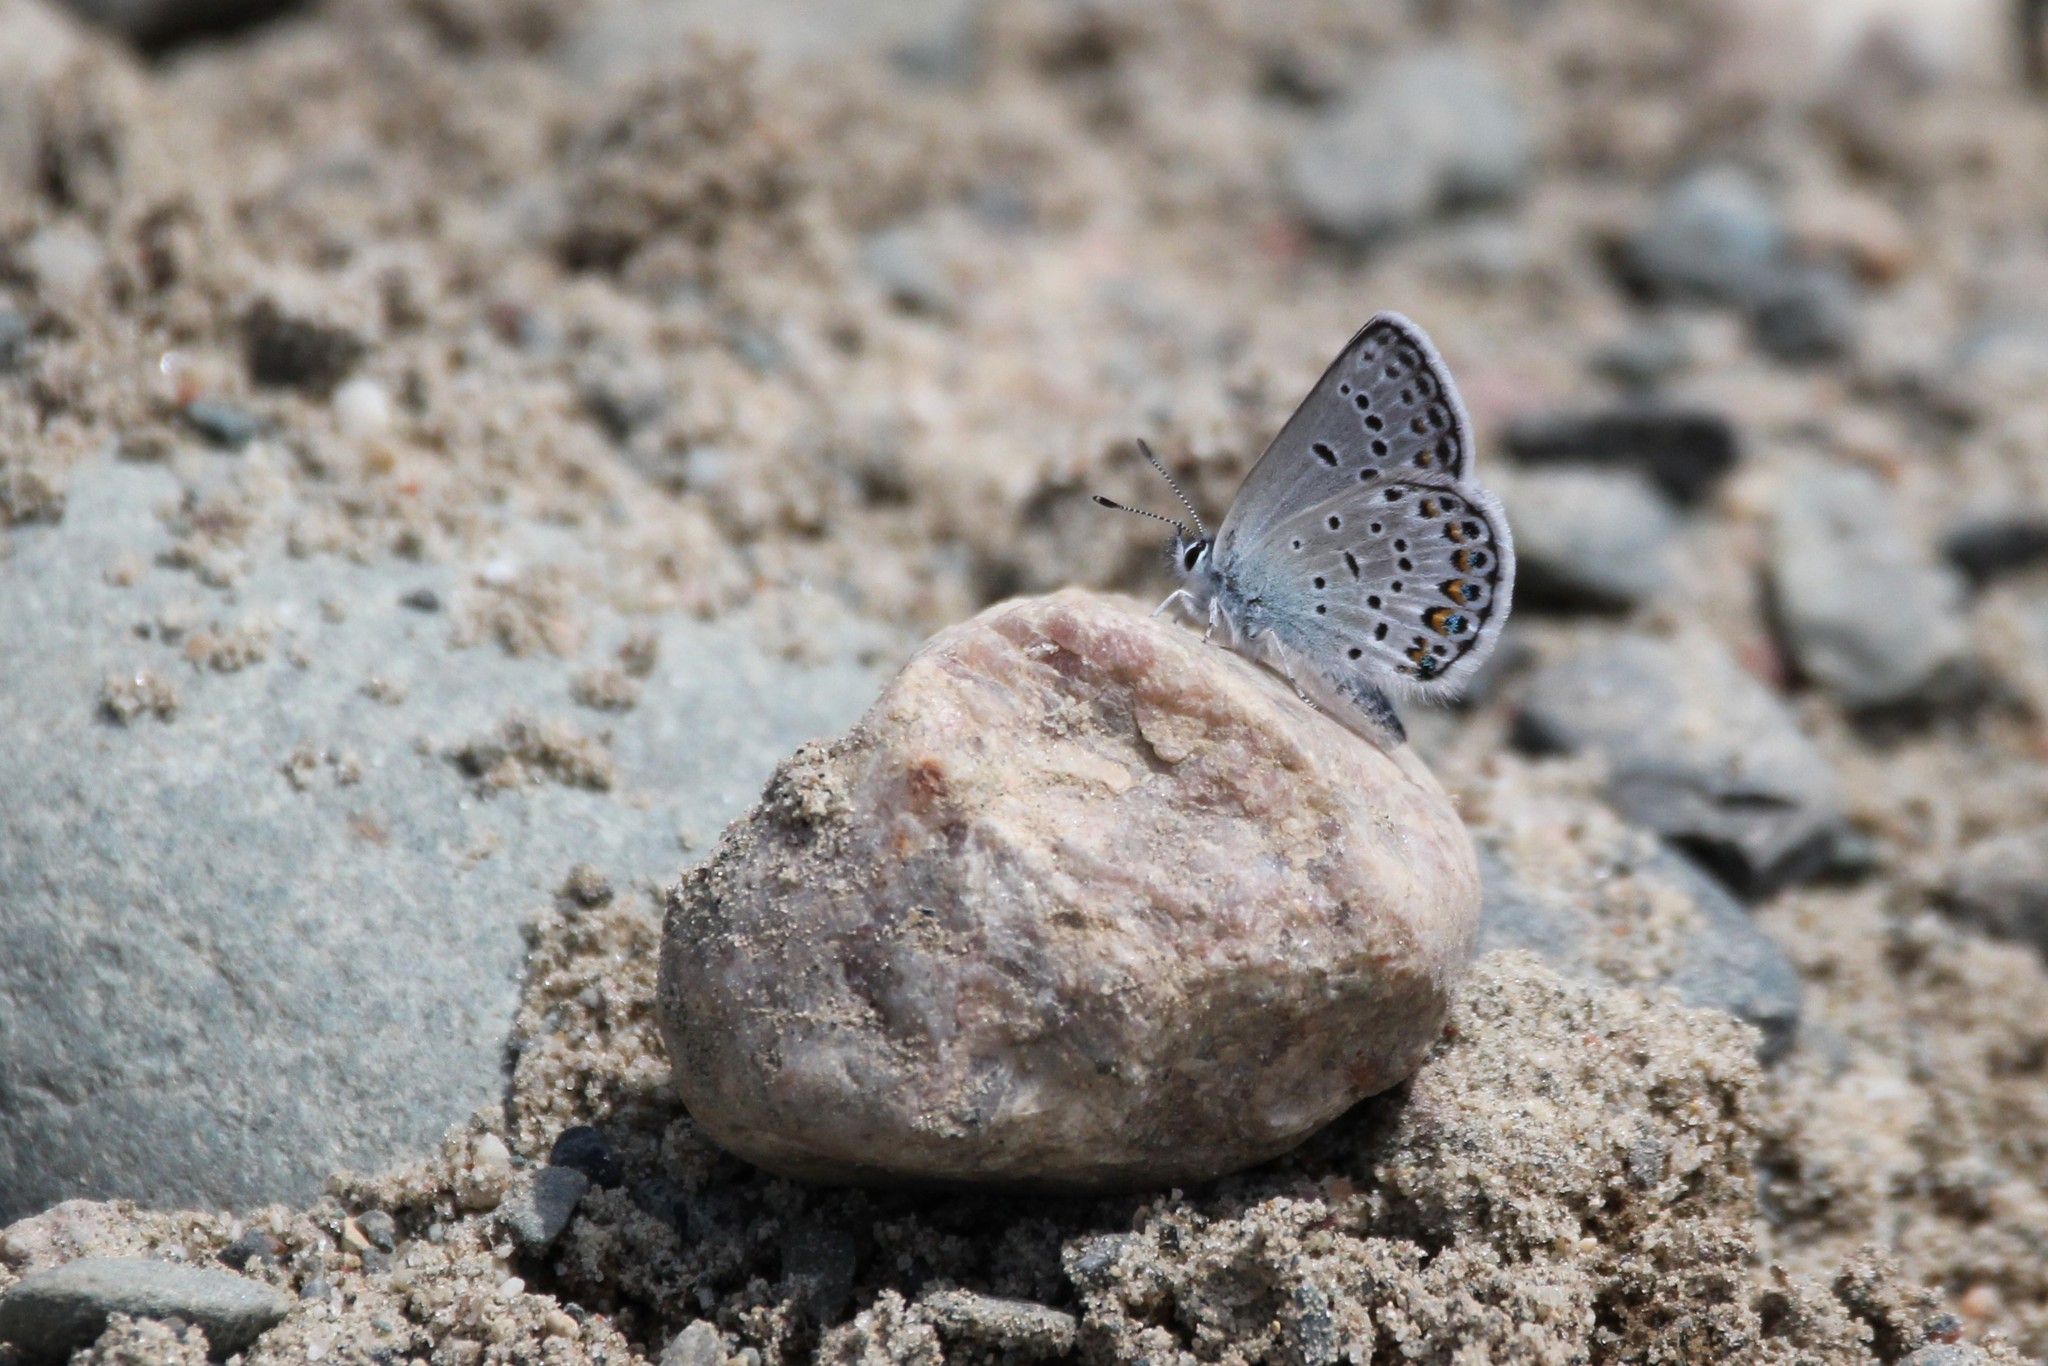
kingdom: Animalia
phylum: Arthropoda
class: Insecta
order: Lepidoptera
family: Lycaenidae
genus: Lycaeides
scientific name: Lycaeides idas
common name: Northern blue
